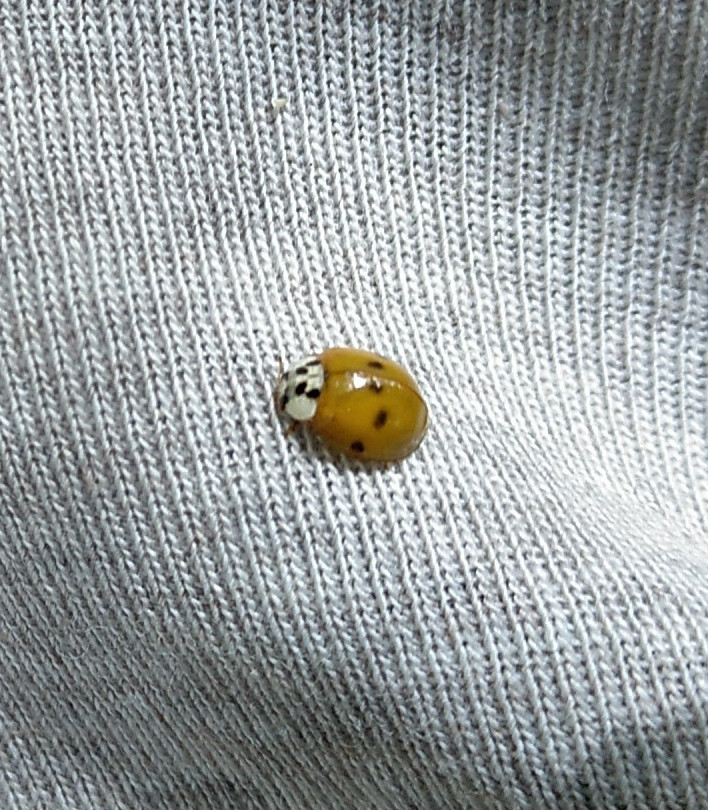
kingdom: Animalia
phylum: Arthropoda
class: Insecta
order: Coleoptera
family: Coccinellidae
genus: Harmonia
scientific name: Harmonia axyridis
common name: Harlequin ladybird
